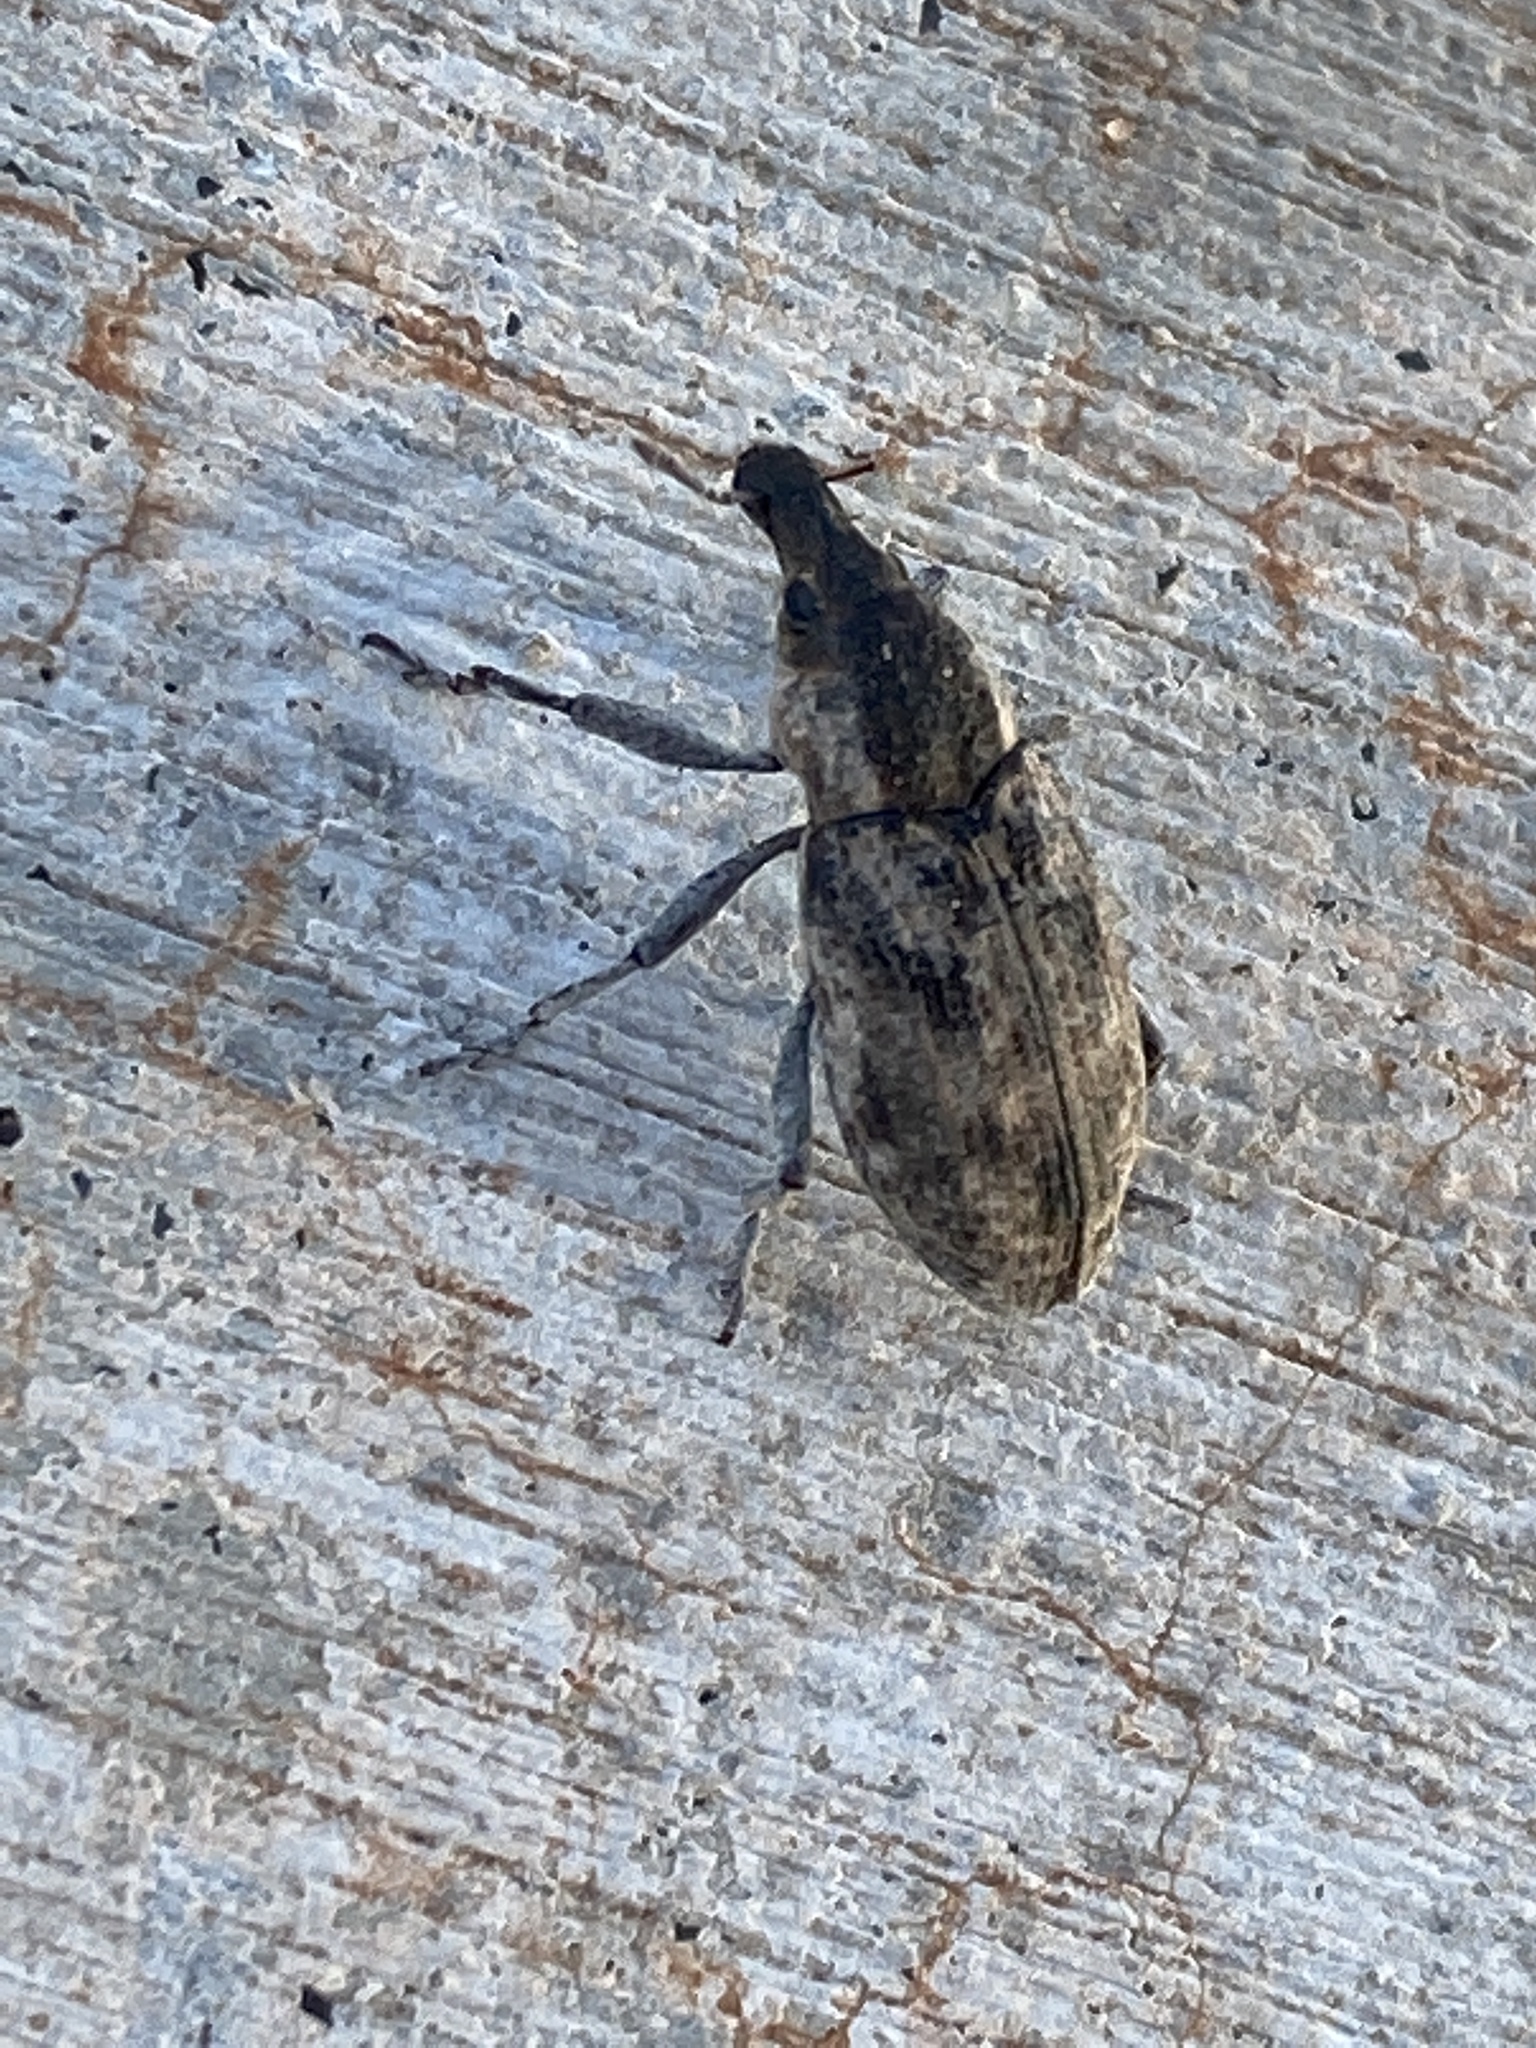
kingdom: Animalia
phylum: Arthropoda
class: Insecta
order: Coleoptera
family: Curculionidae
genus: Apleurus
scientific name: Apleurus lutulentus
